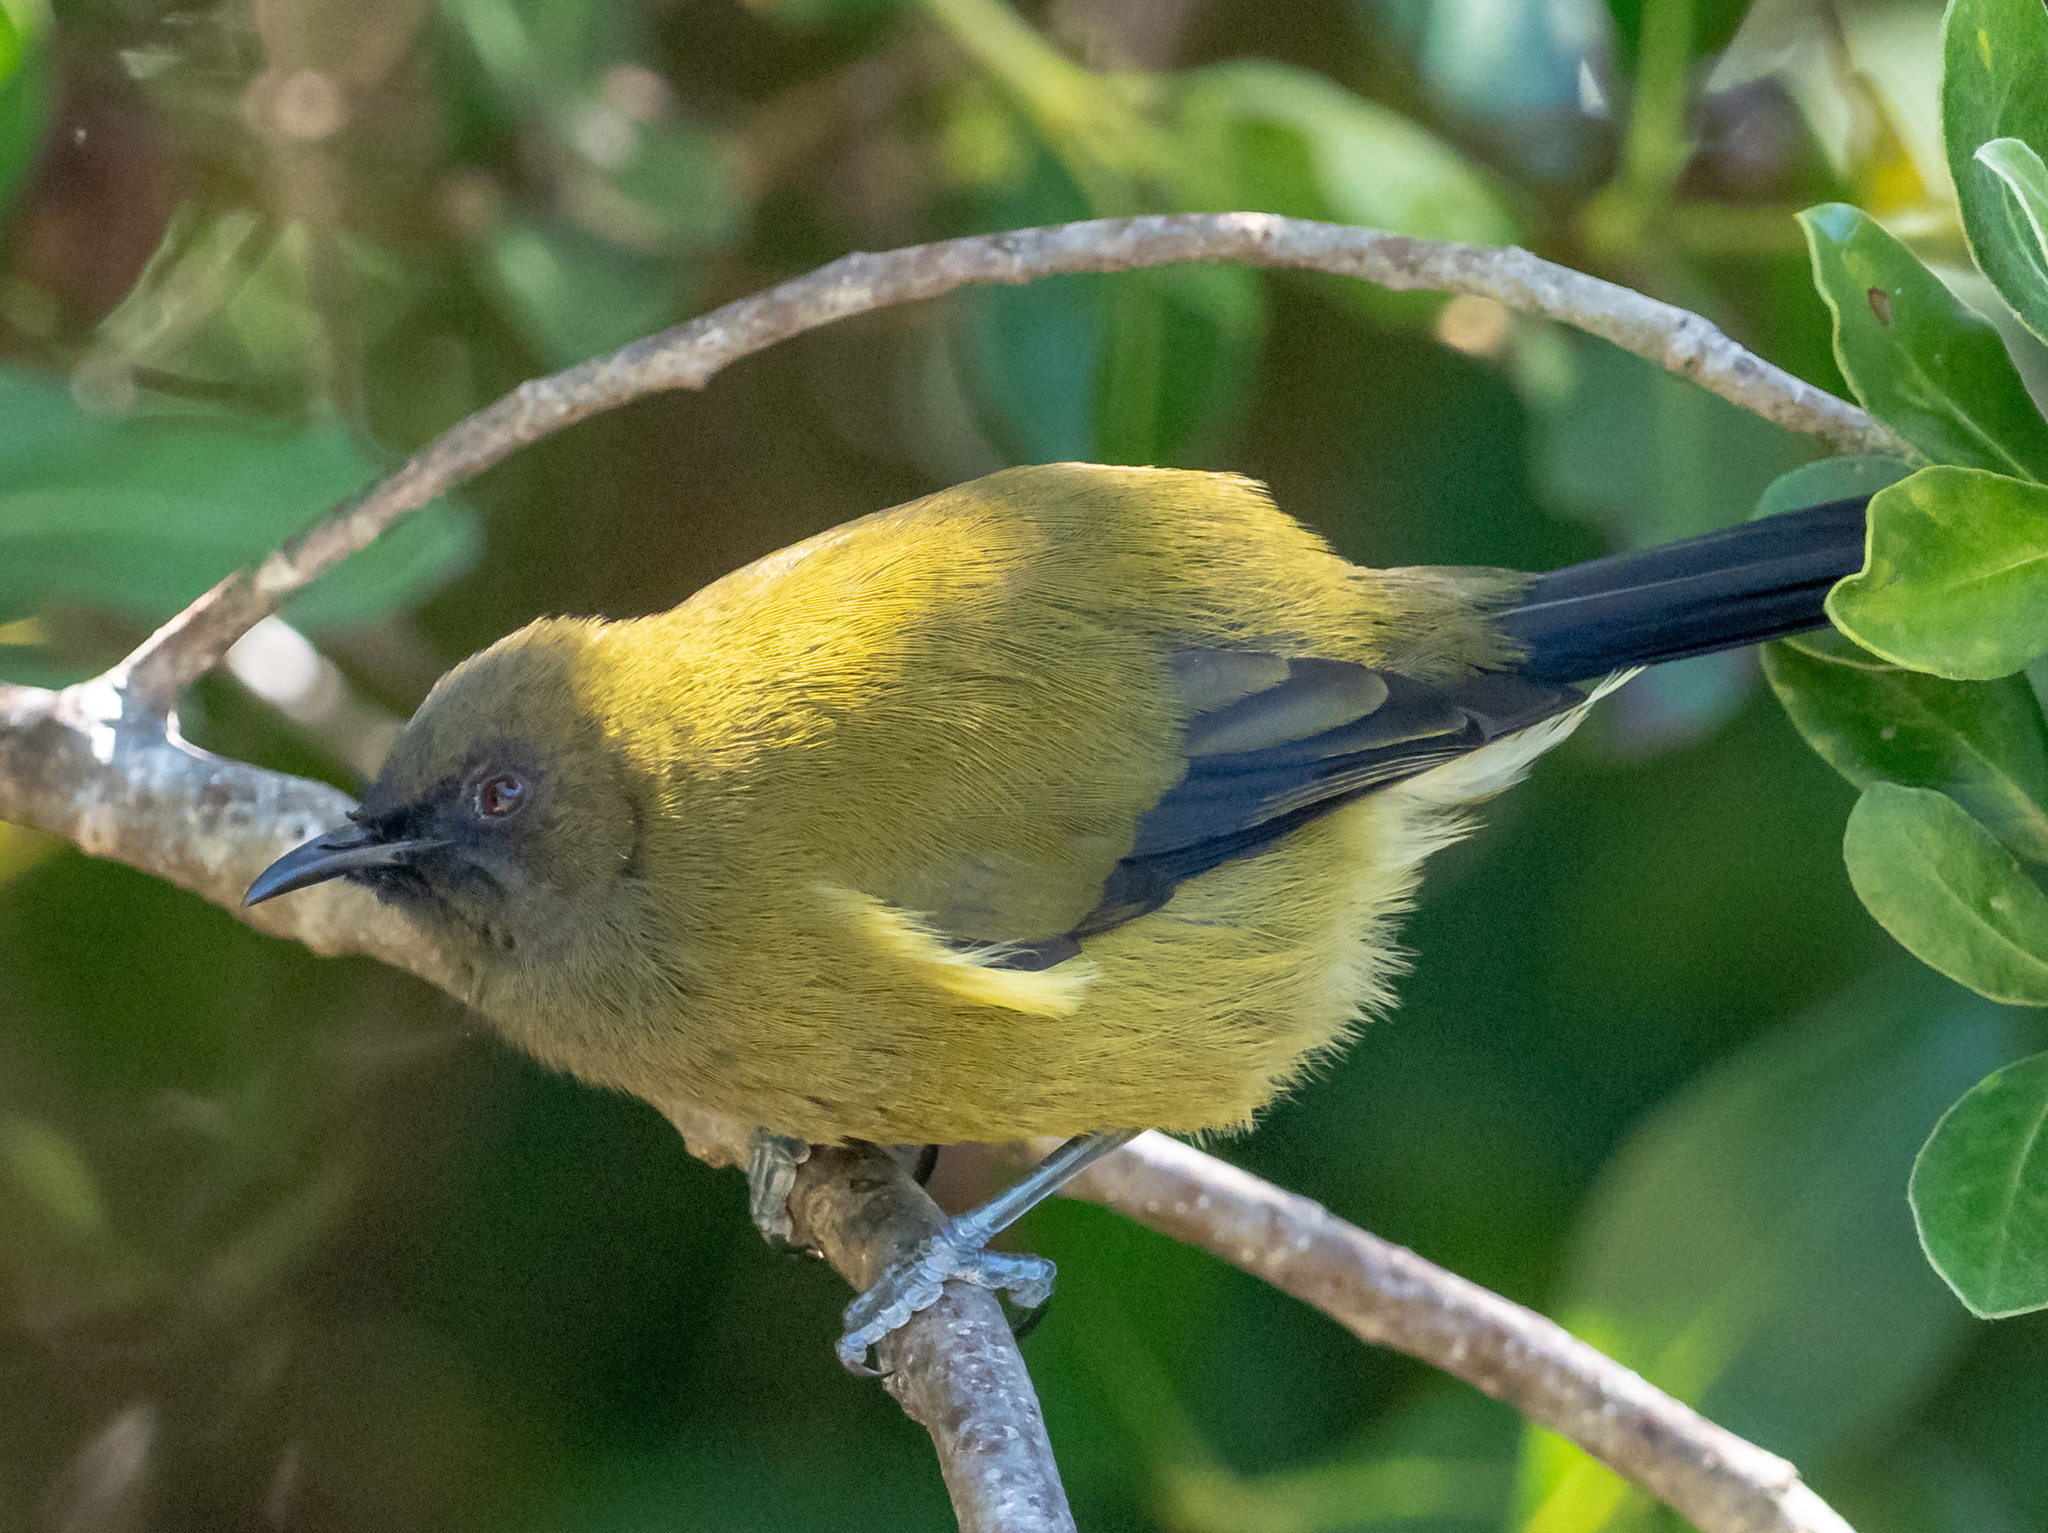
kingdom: Animalia
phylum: Chordata
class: Aves
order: Passeriformes
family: Meliphagidae
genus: Anthornis
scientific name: Anthornis melanura
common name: New zealand bellbird
